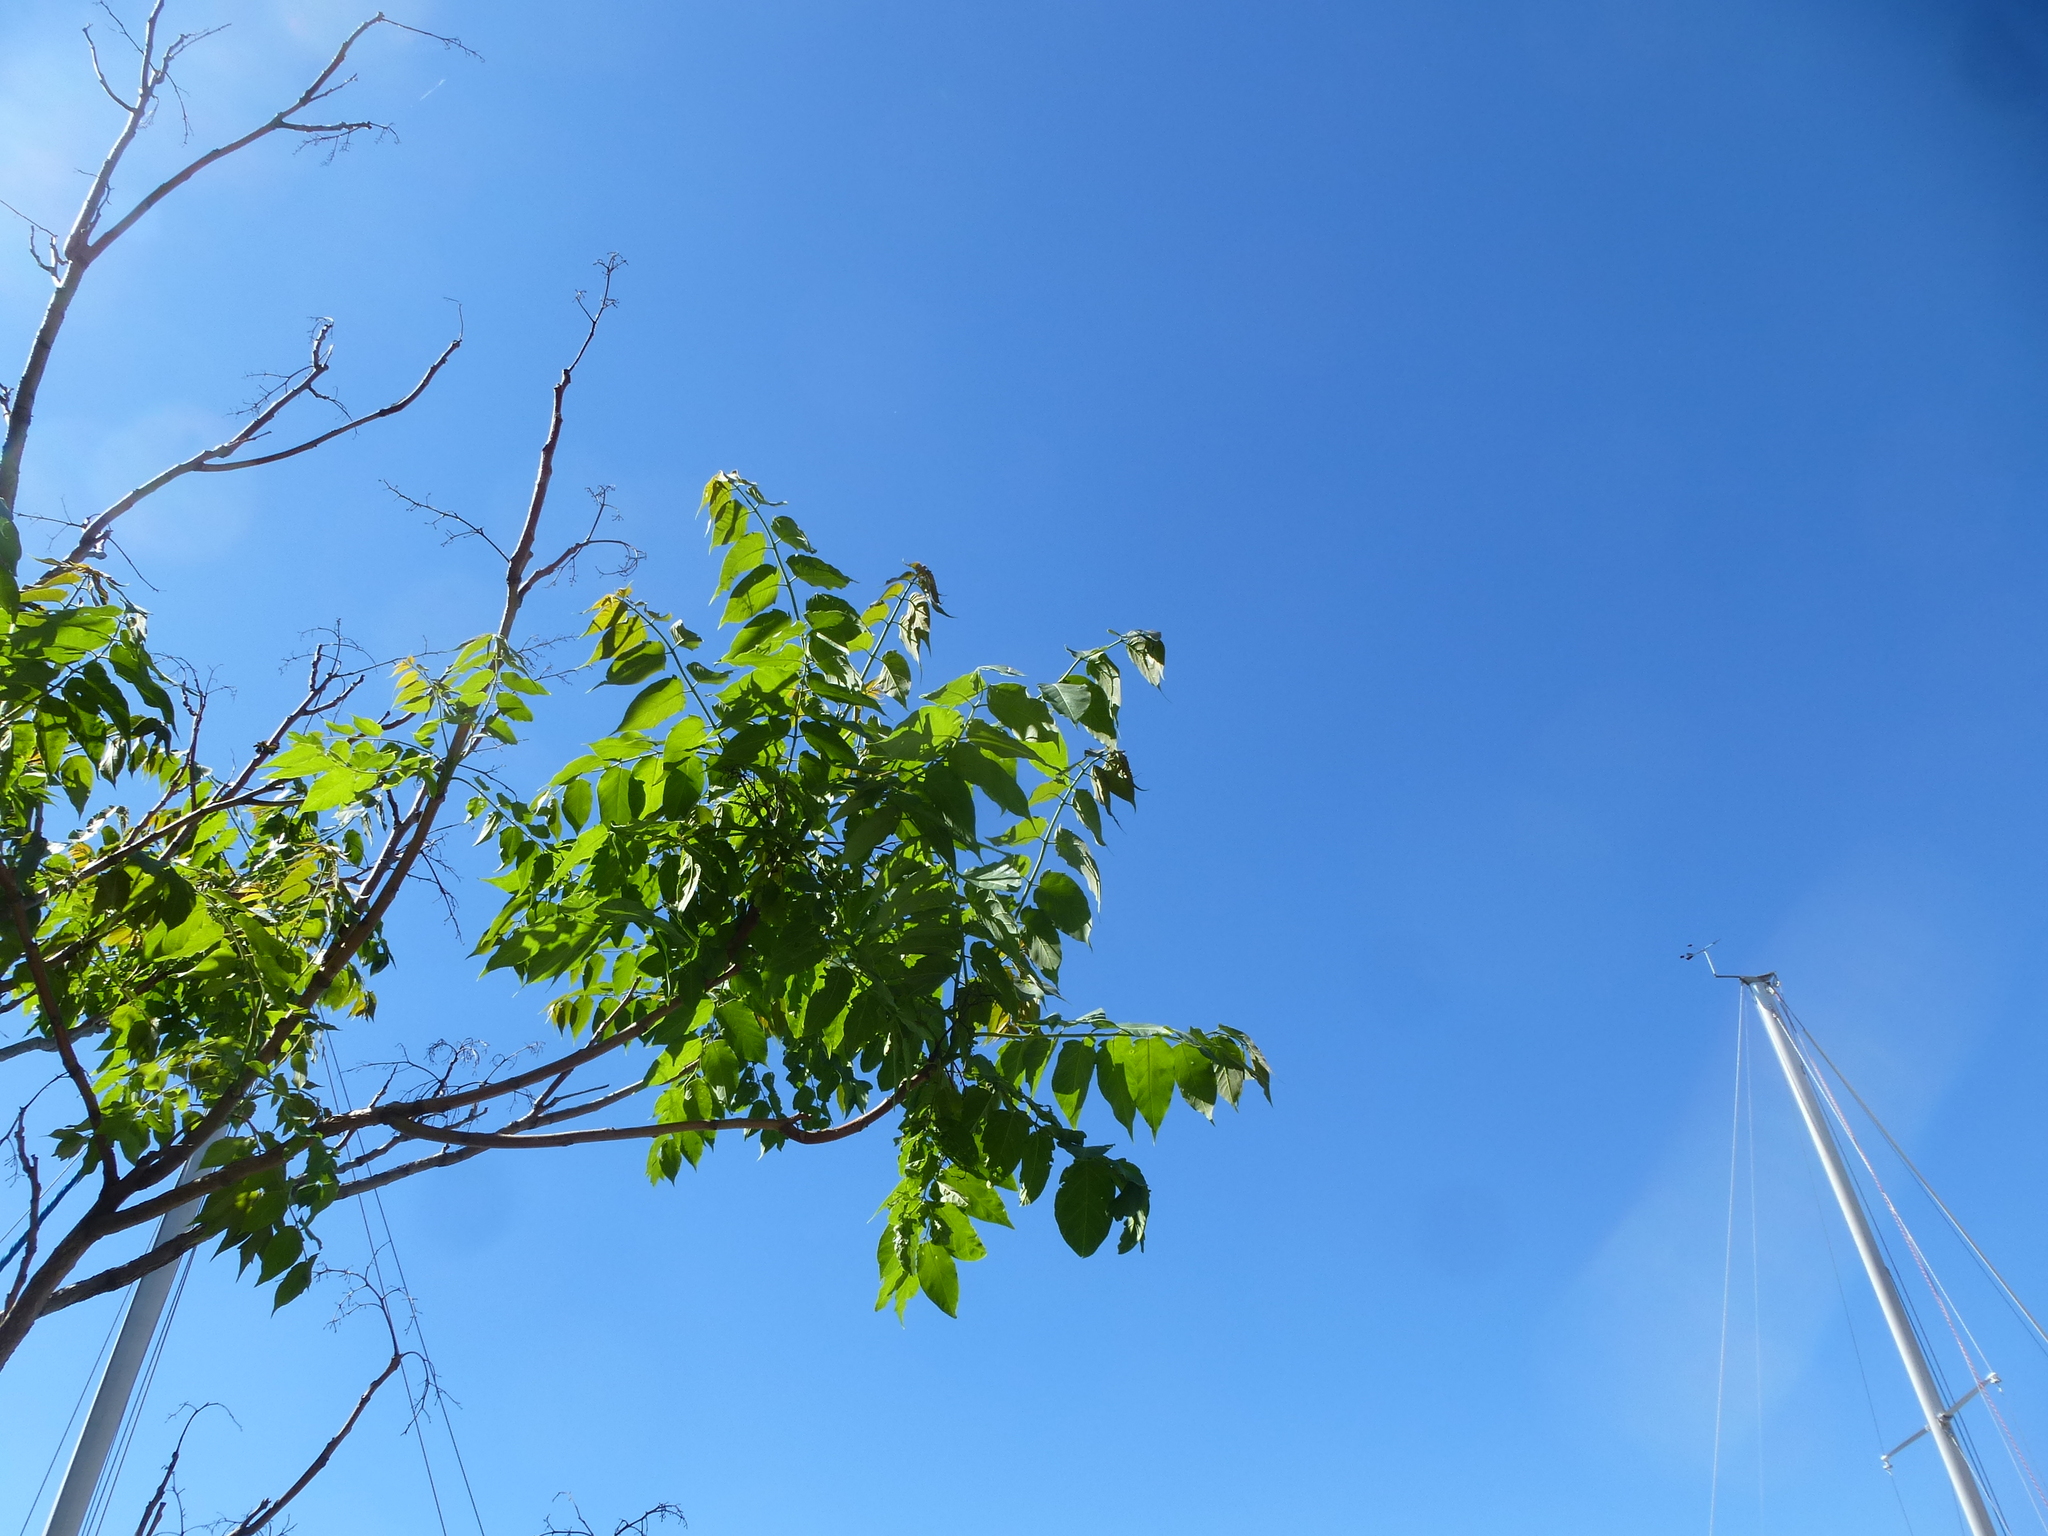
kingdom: Plantae
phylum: Tracheophyta
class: Magnoliopsida
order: Sapindales
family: Simaroubaceae
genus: Ailanthus
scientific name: Ailanthus altissima
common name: Tree-of-heaven
